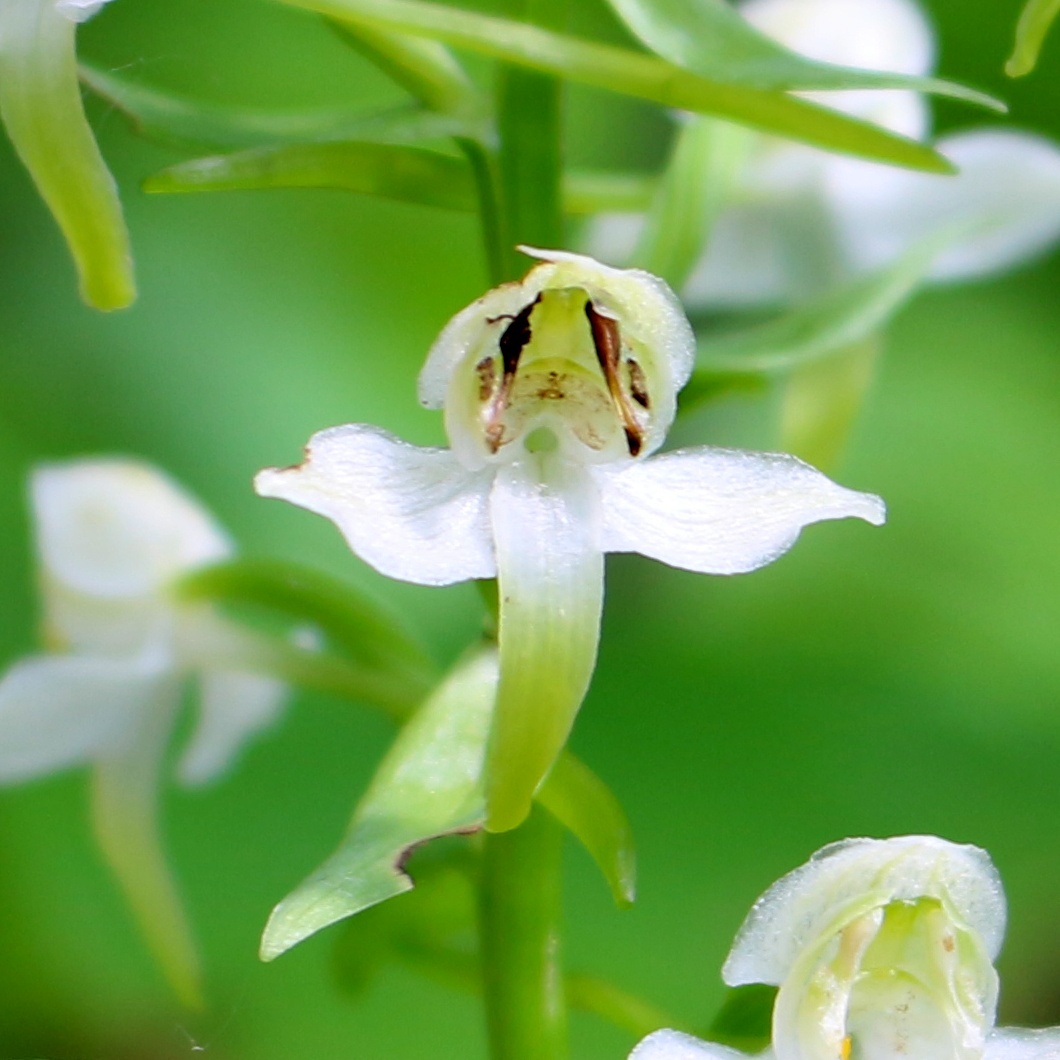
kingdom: Plantae
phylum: Tracheophyta
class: Liliopsida
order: Asparagales
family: Orchidaceae
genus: Platanthera
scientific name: Platanthera chlorantha
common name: Greater butterfly-orchid
